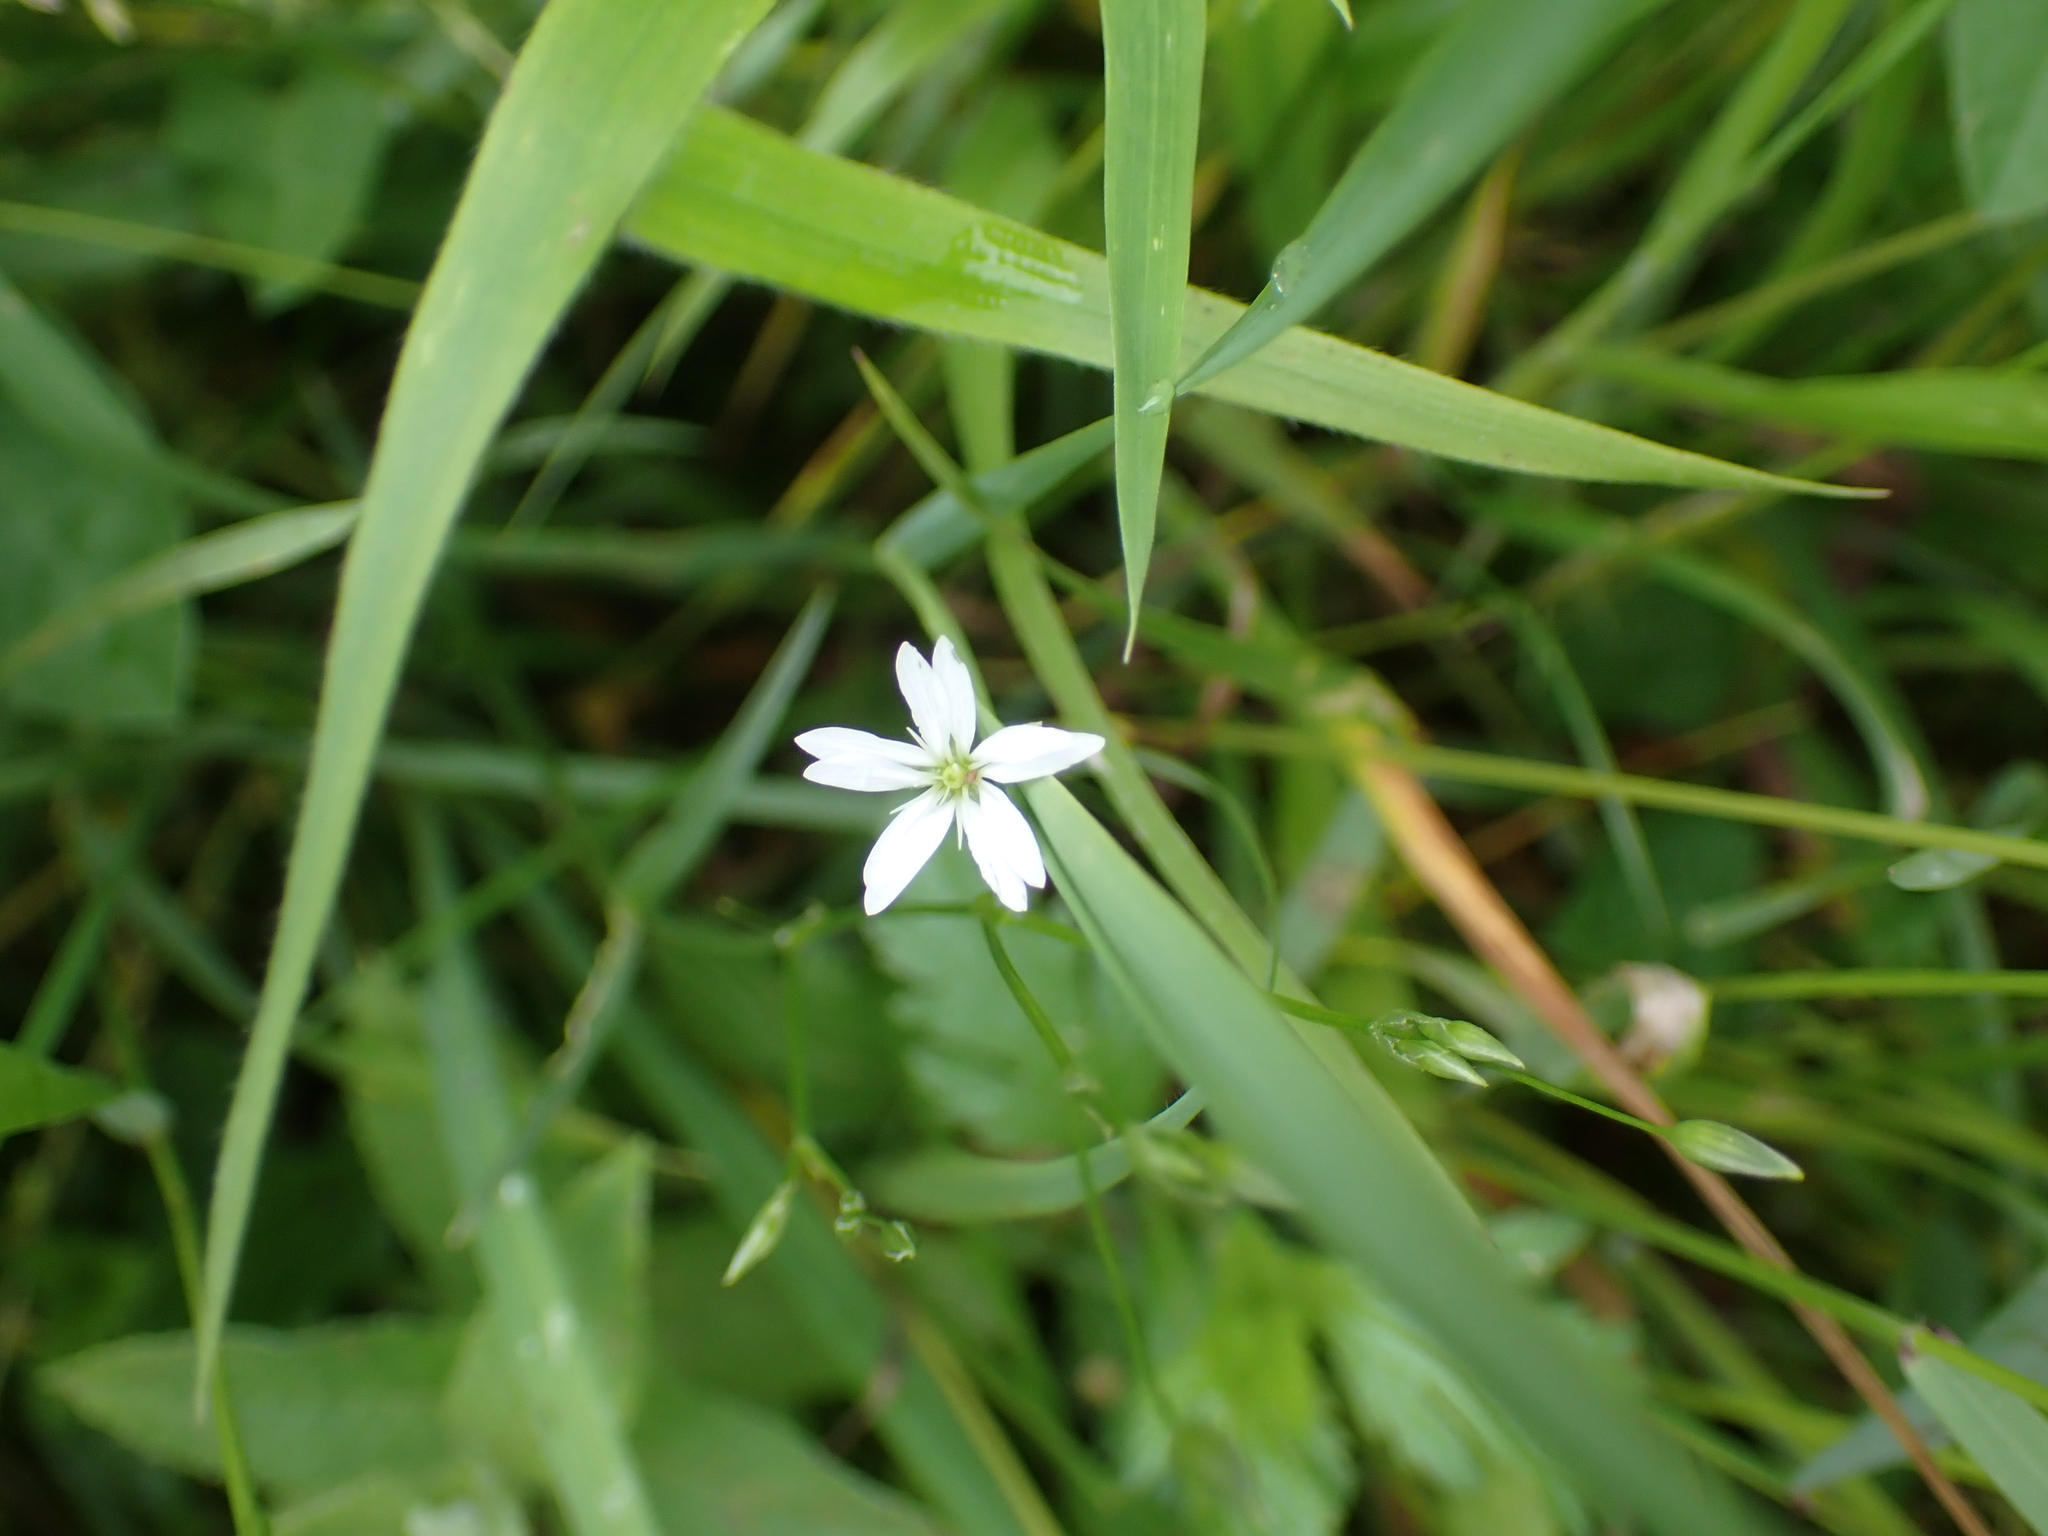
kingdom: Plantae
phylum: Tracheophyta
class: Magnoliopsida
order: Caryophyllales
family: Caryophyllaceae
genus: Stellaria
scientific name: Stellaria graminea
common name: Grass-like starwort
